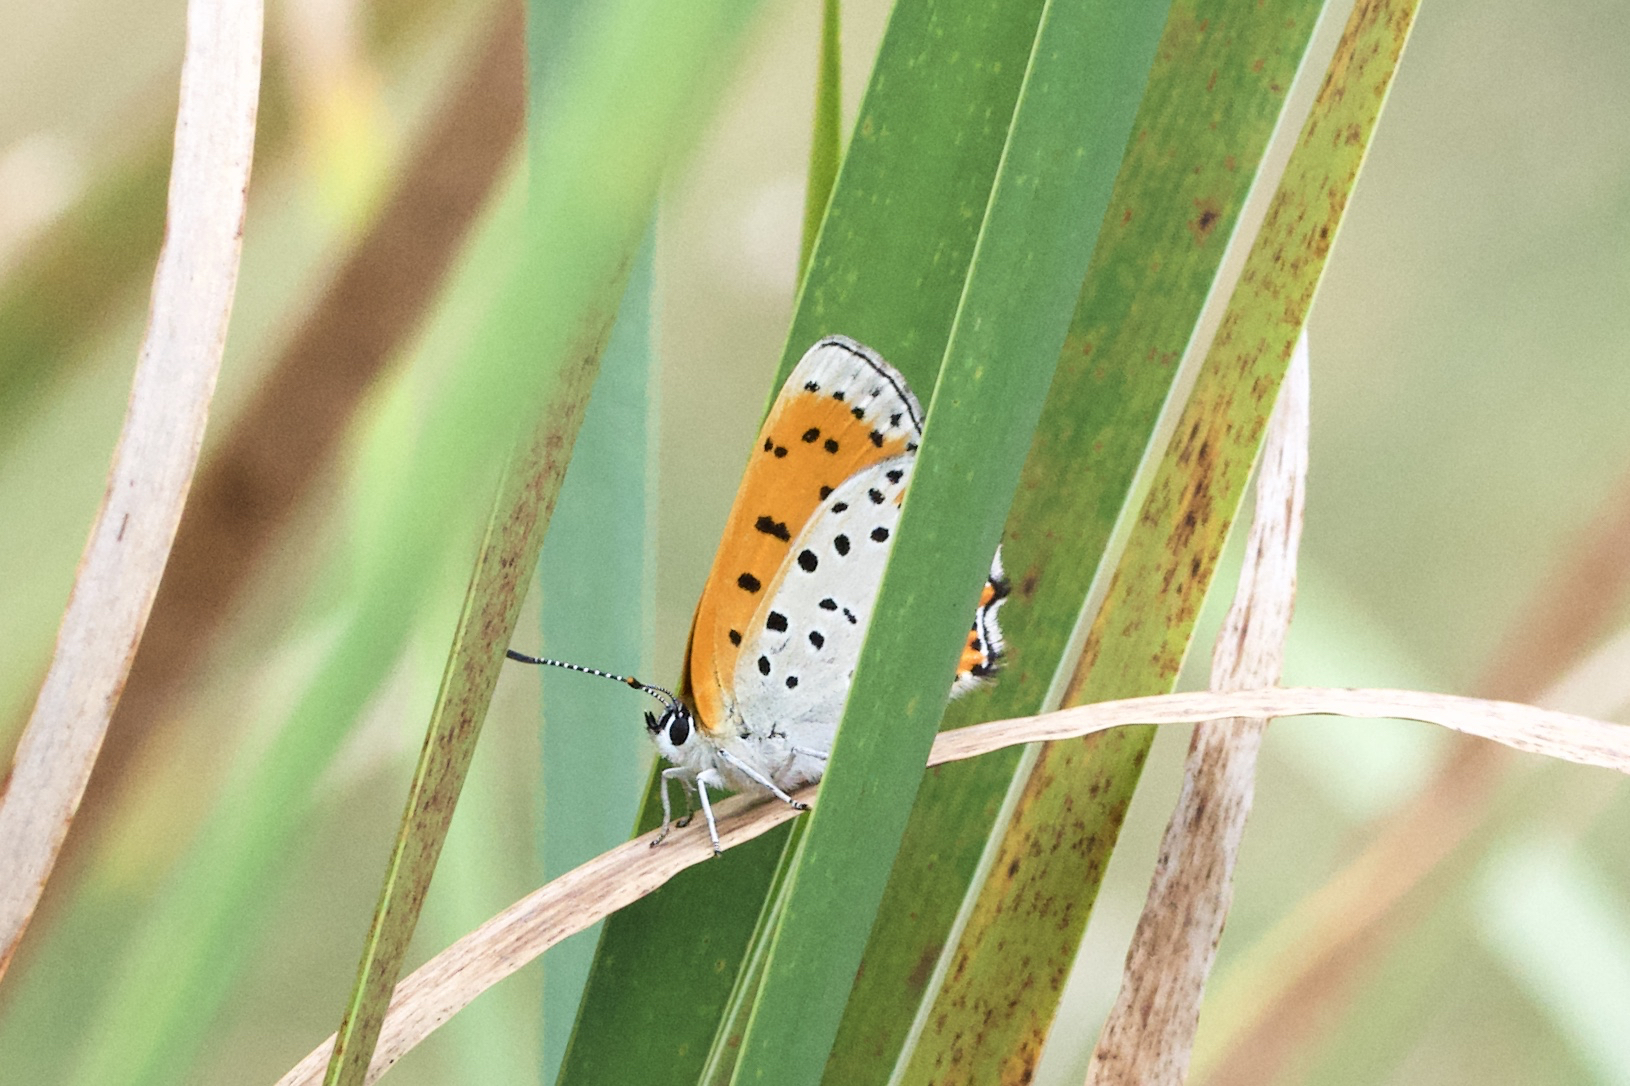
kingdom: Animalia
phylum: Arthropoda
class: Insecta
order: Lepidoptera
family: Lycaenidae
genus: Tharsalea
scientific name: Tharsalea hyllus
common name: Bronze copper
